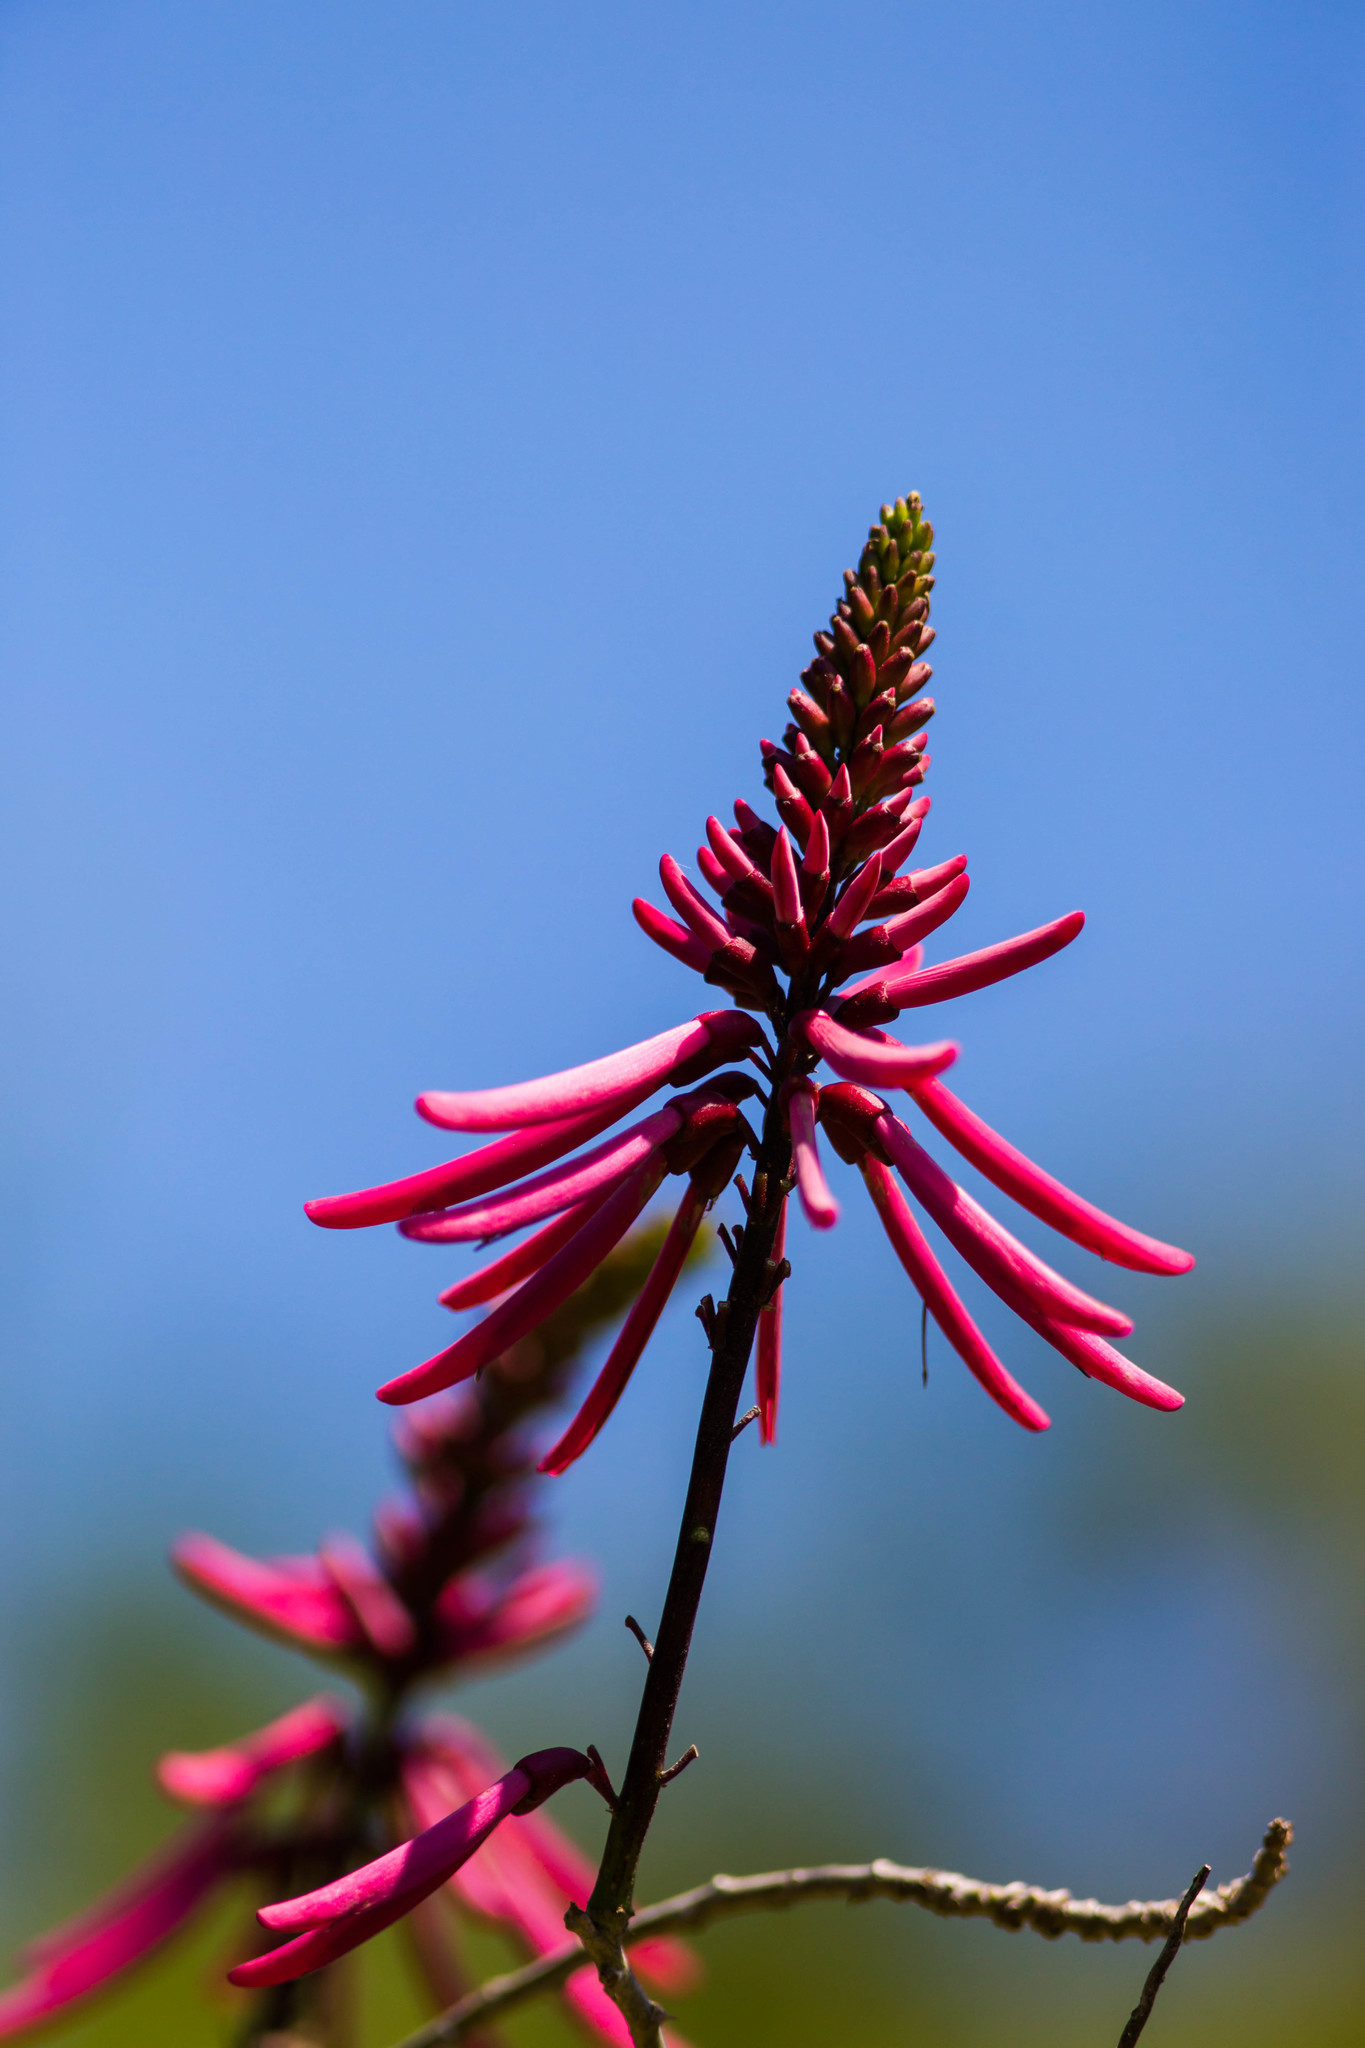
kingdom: Plantae
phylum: Tracheophyta
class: Magnoliopsida
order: Fabales
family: Fabaceae
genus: Erythrina
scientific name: Erythrina herbacea
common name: Coral-bean
